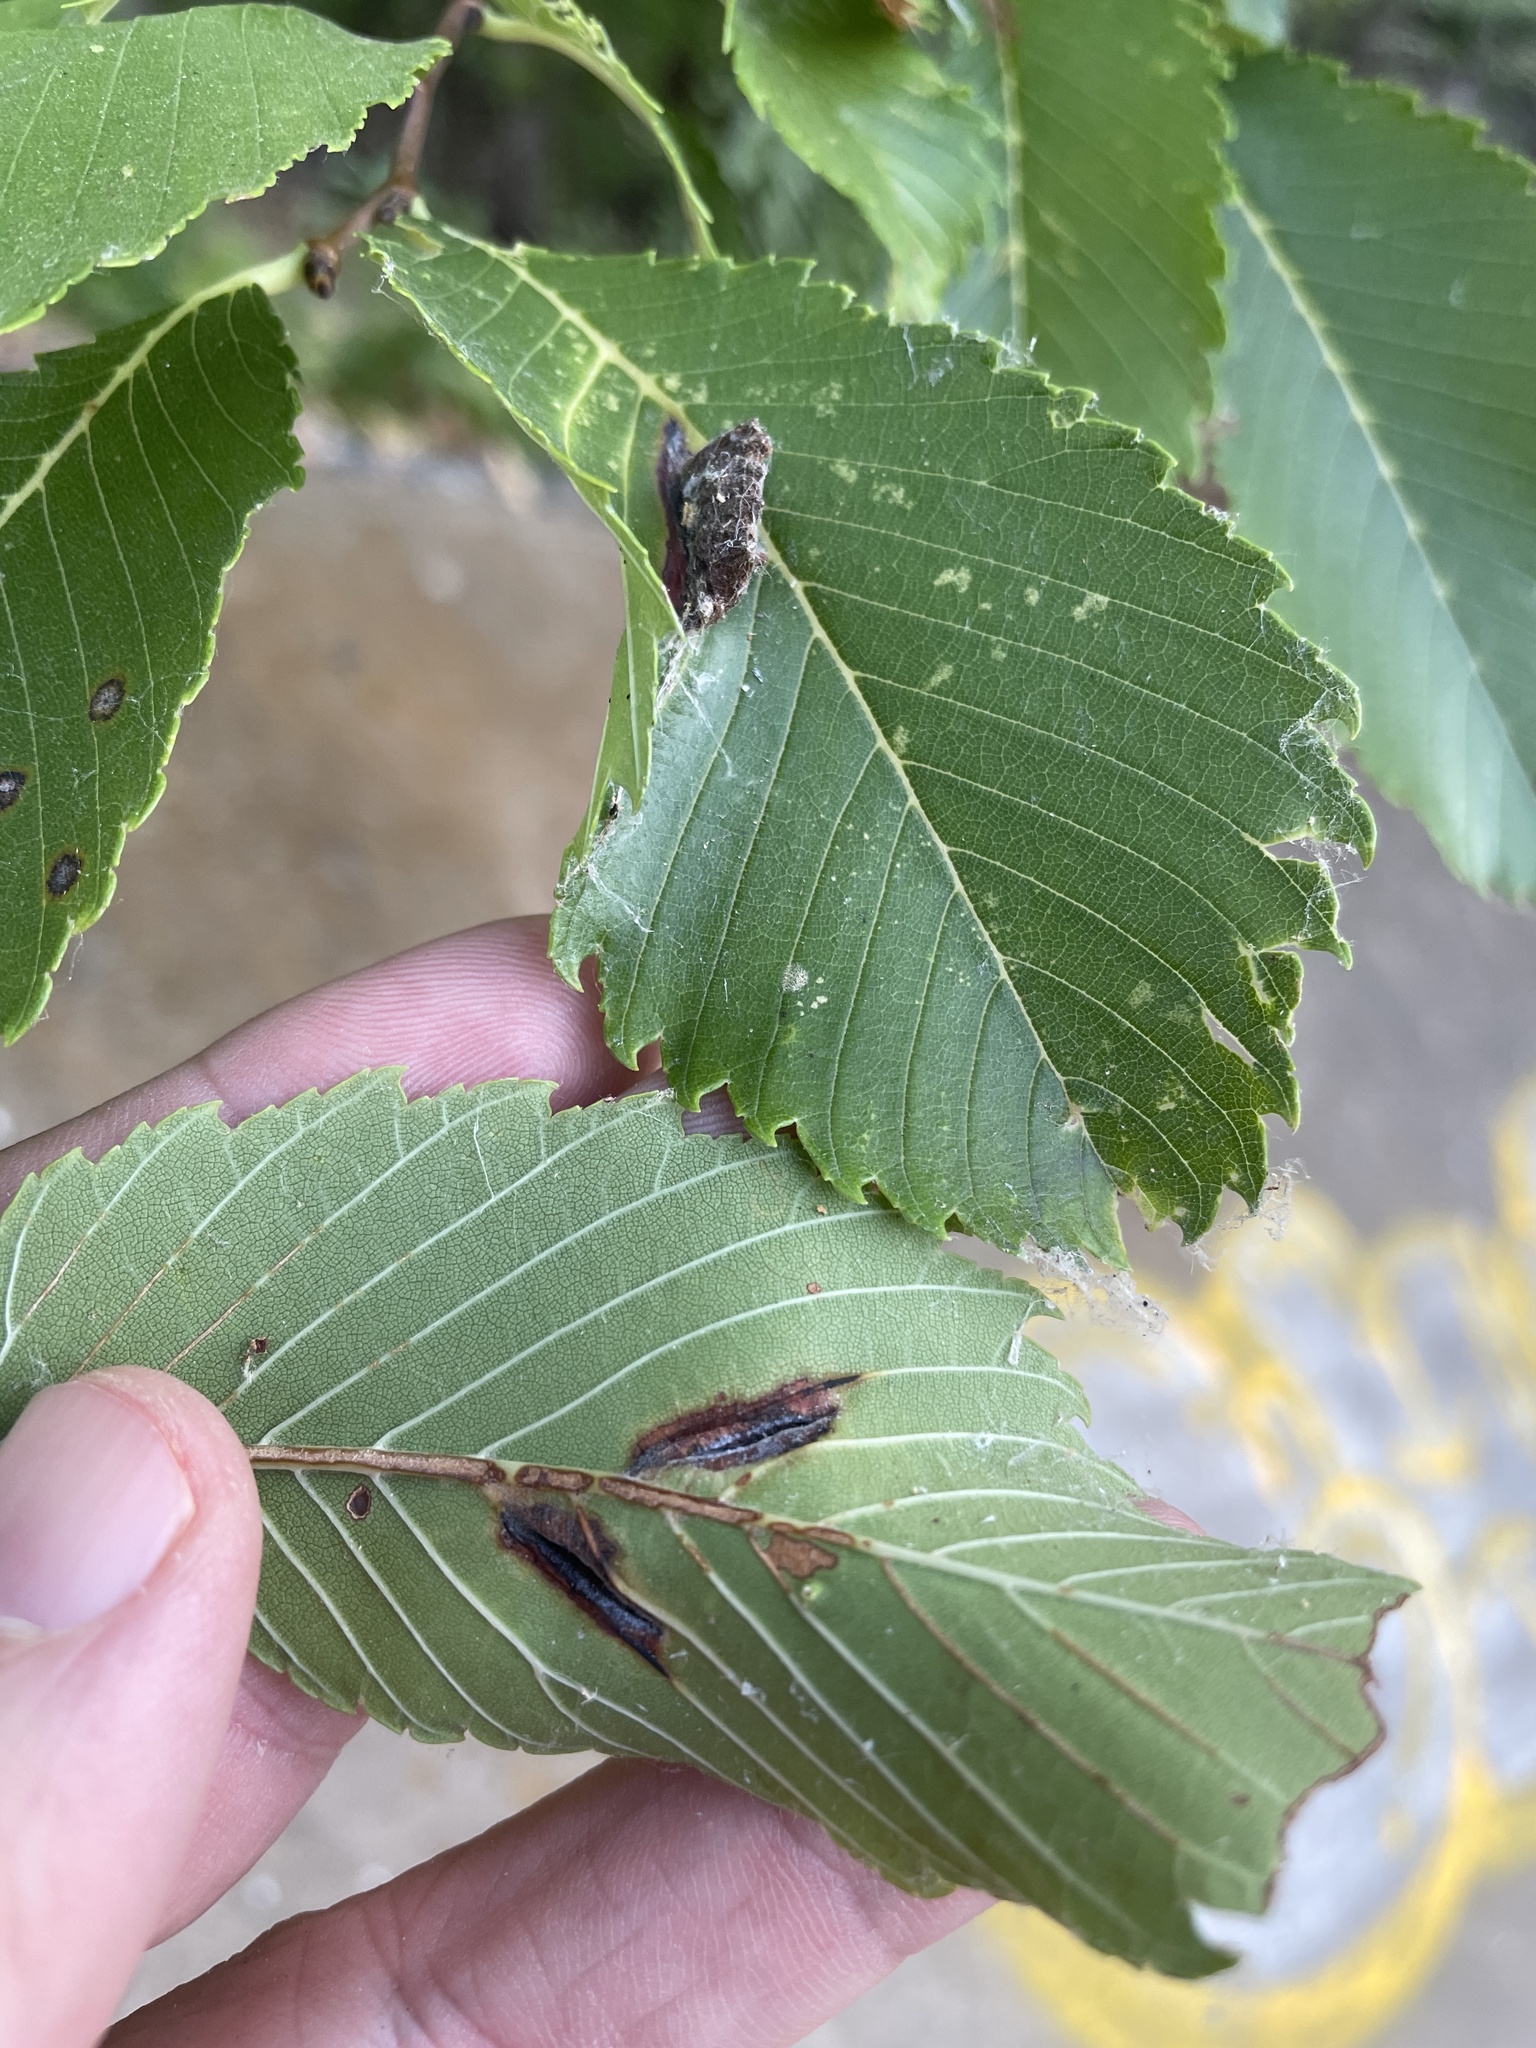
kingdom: Animalia
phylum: Arthropoda
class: Insecta
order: Hemiptera
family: Aphididae
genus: Colopha
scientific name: Colopha ulmicola
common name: Elm cockscombgall aphid
